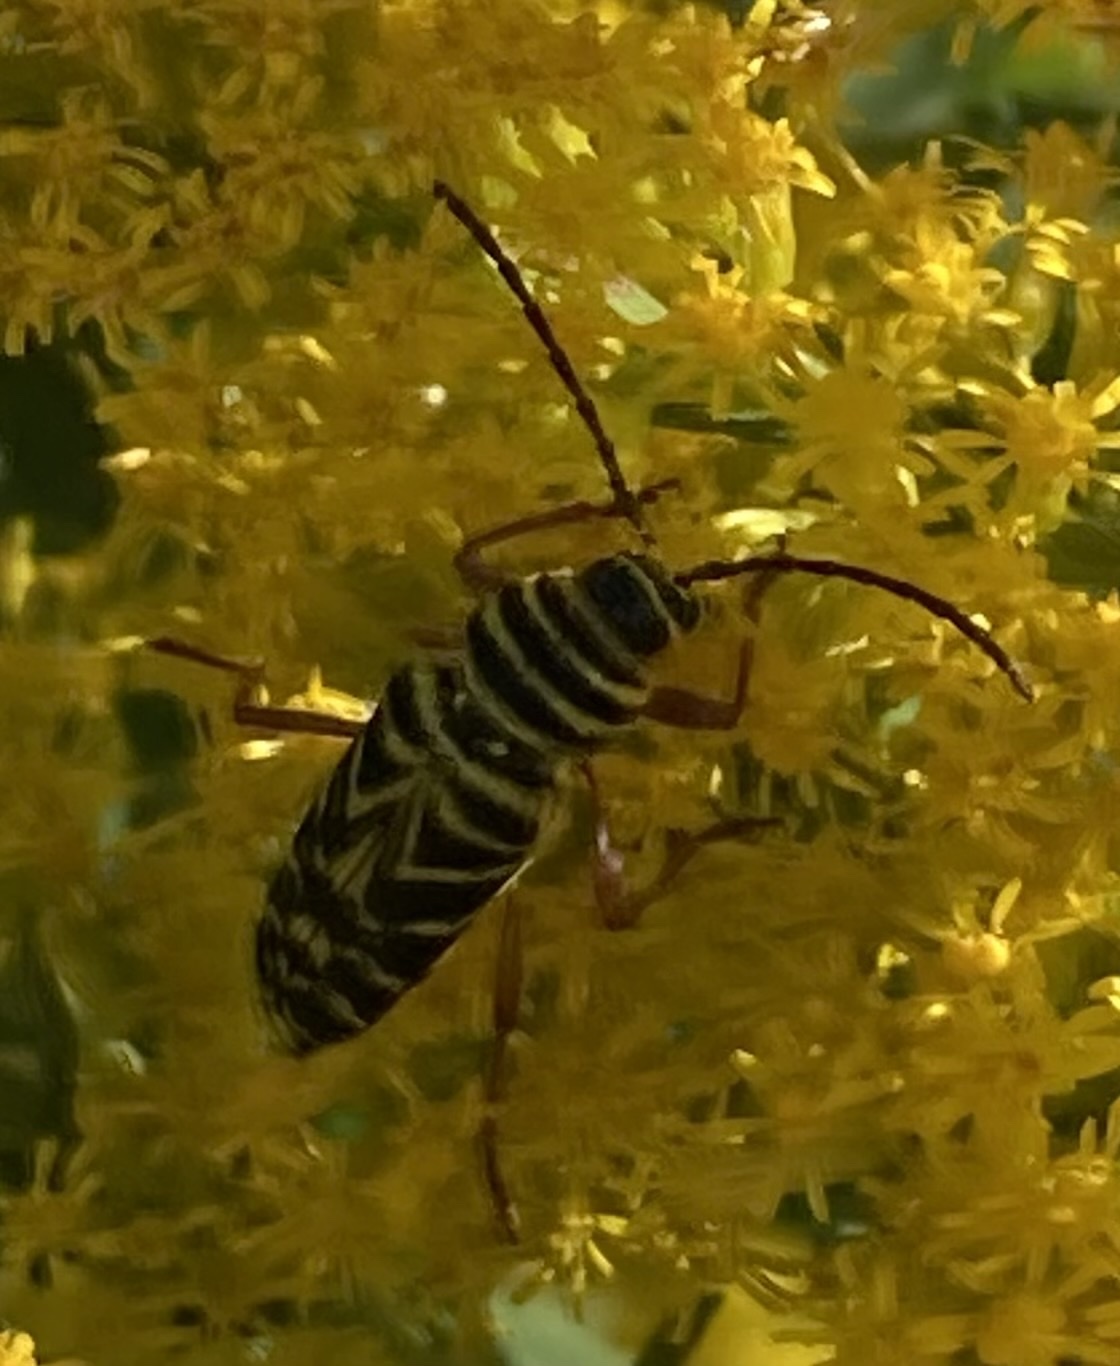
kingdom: Animalia
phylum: Arthropoda
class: Insecta
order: Coleoptera
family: Cerambycidae
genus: Megacyllene
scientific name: Megacyllene robiniae
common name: Locust borer
